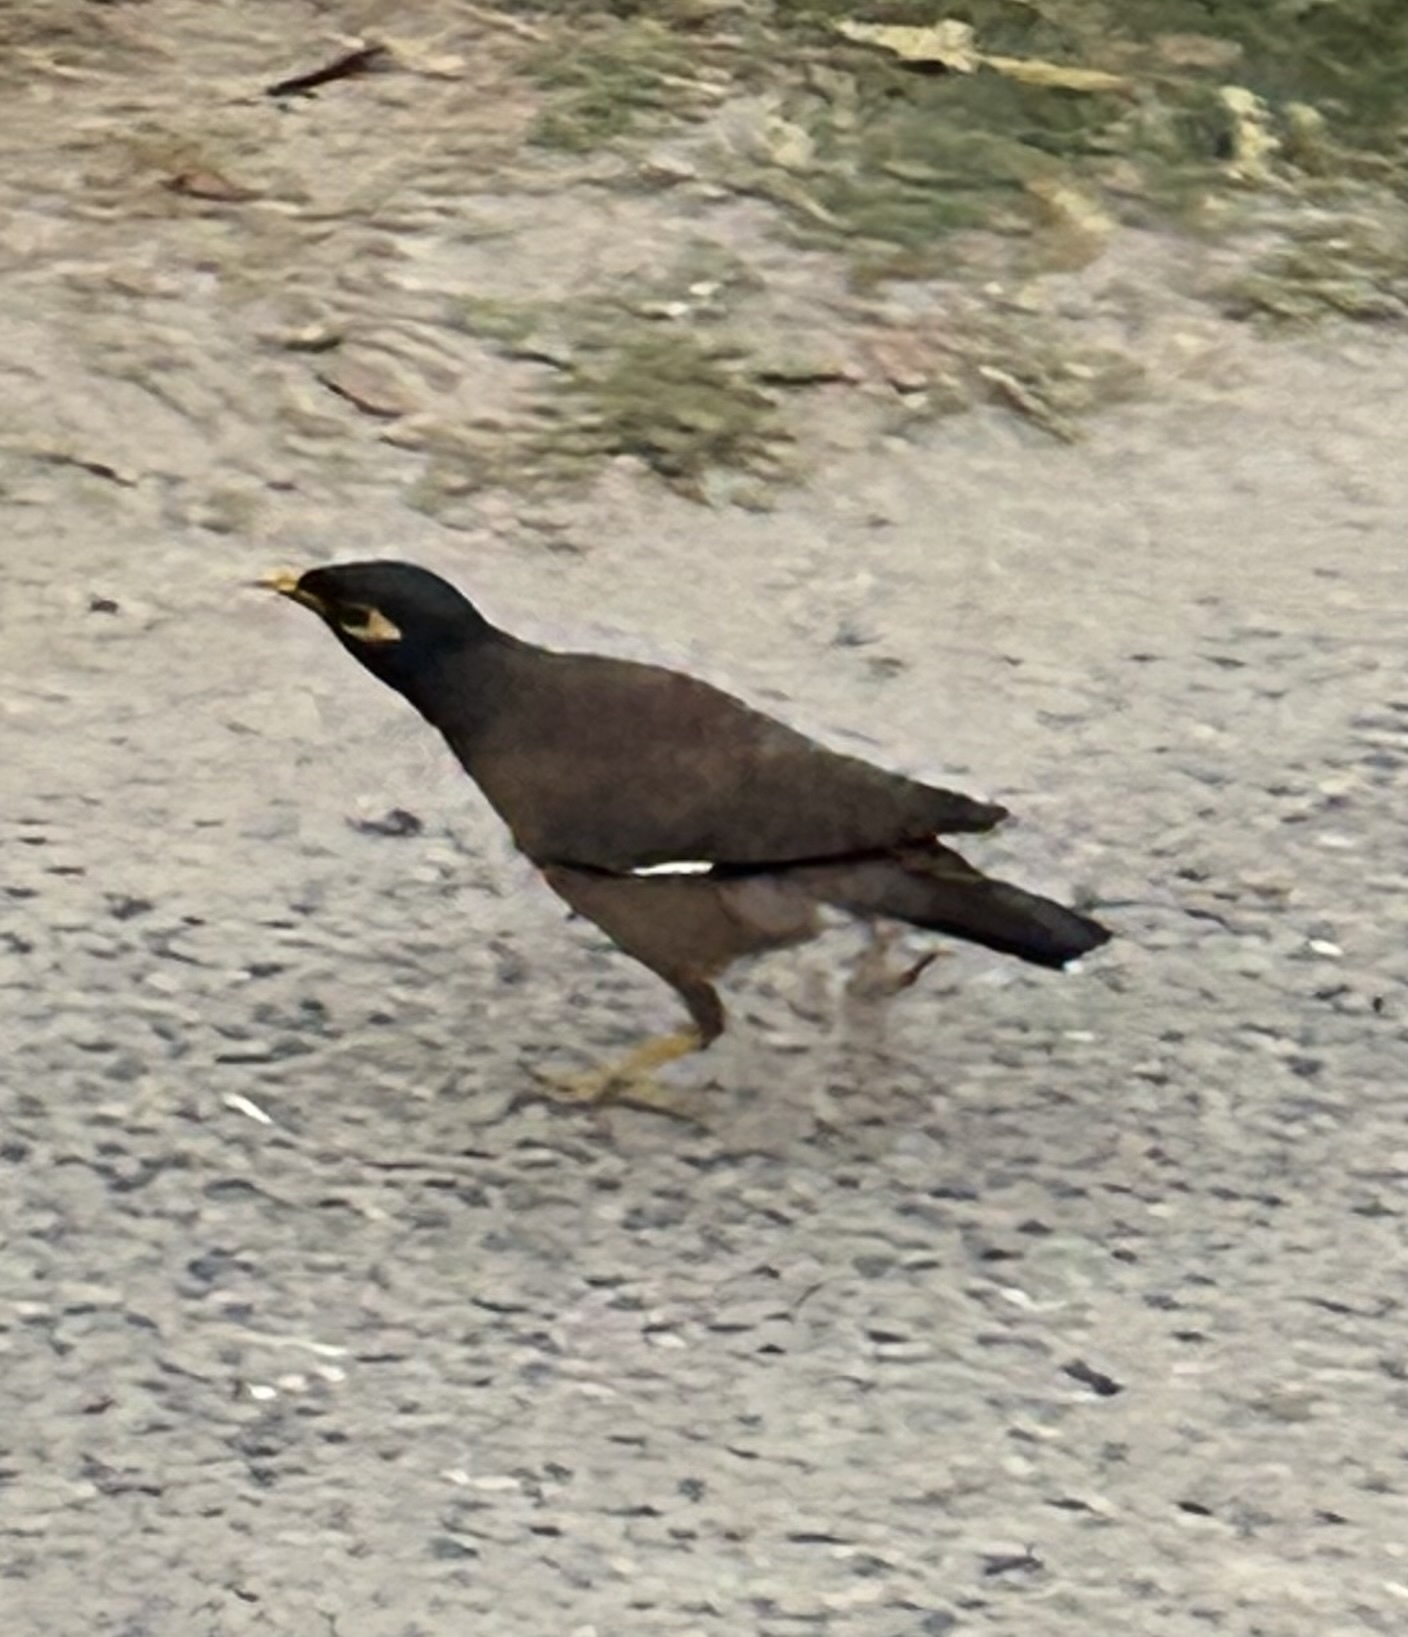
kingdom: Animalia
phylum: Chordata
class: Aves
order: Passeriformes
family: Sturnidae
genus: Acridotheres
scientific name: Acridotheres tristis
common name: Common myna
